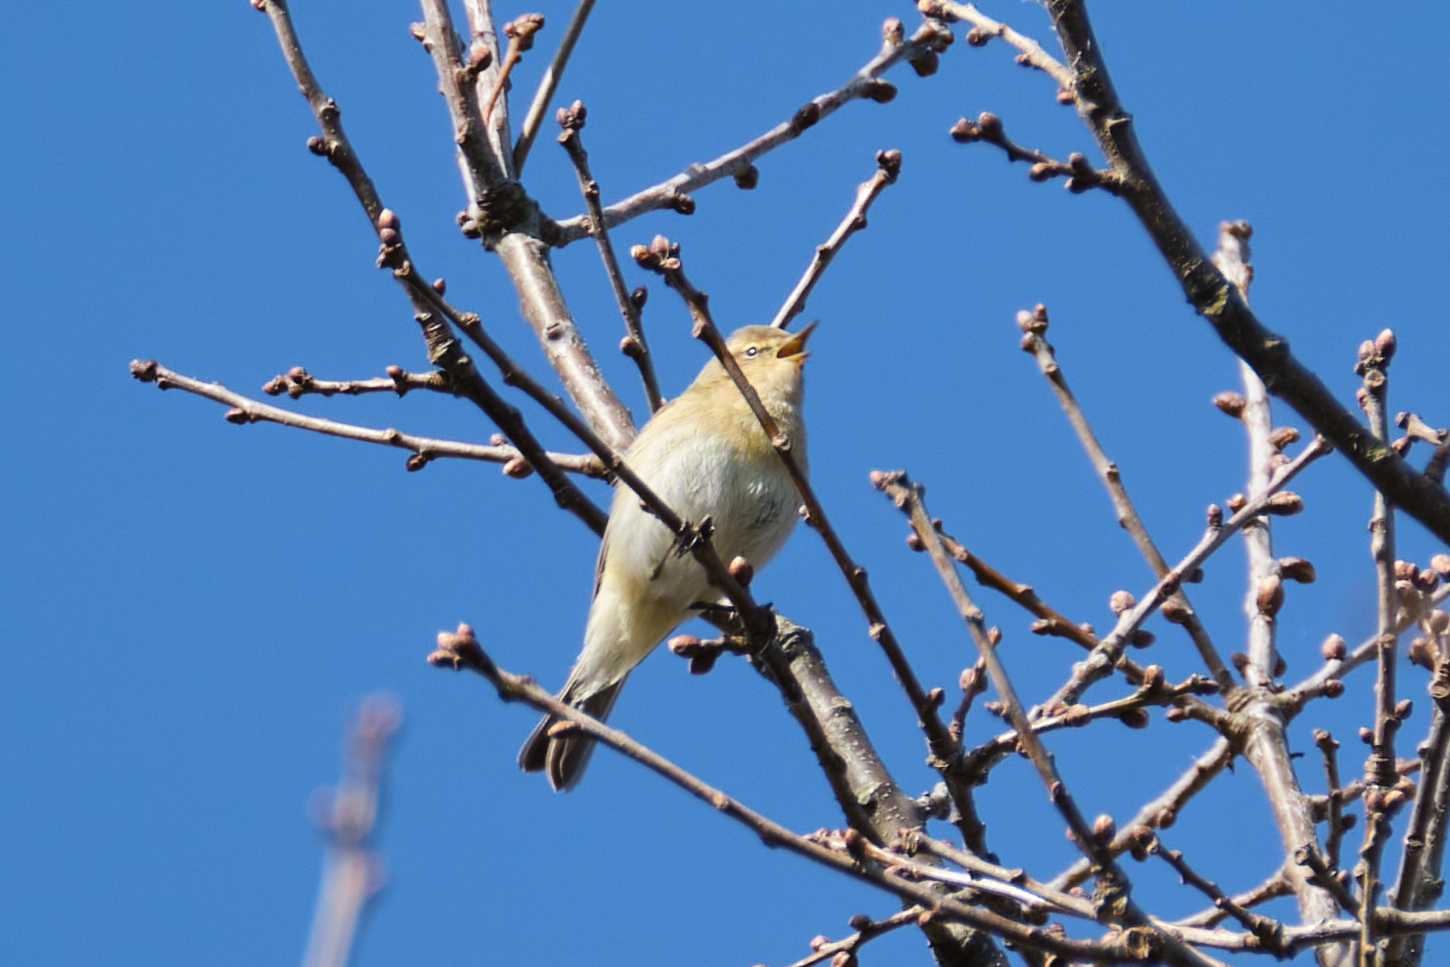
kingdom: Animalia
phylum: Chordata
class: Aves
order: Passeriformes
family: Phylloscopidae
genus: Phylloscopus
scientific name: Phylloscopus collybita
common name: Common chiffchaff
